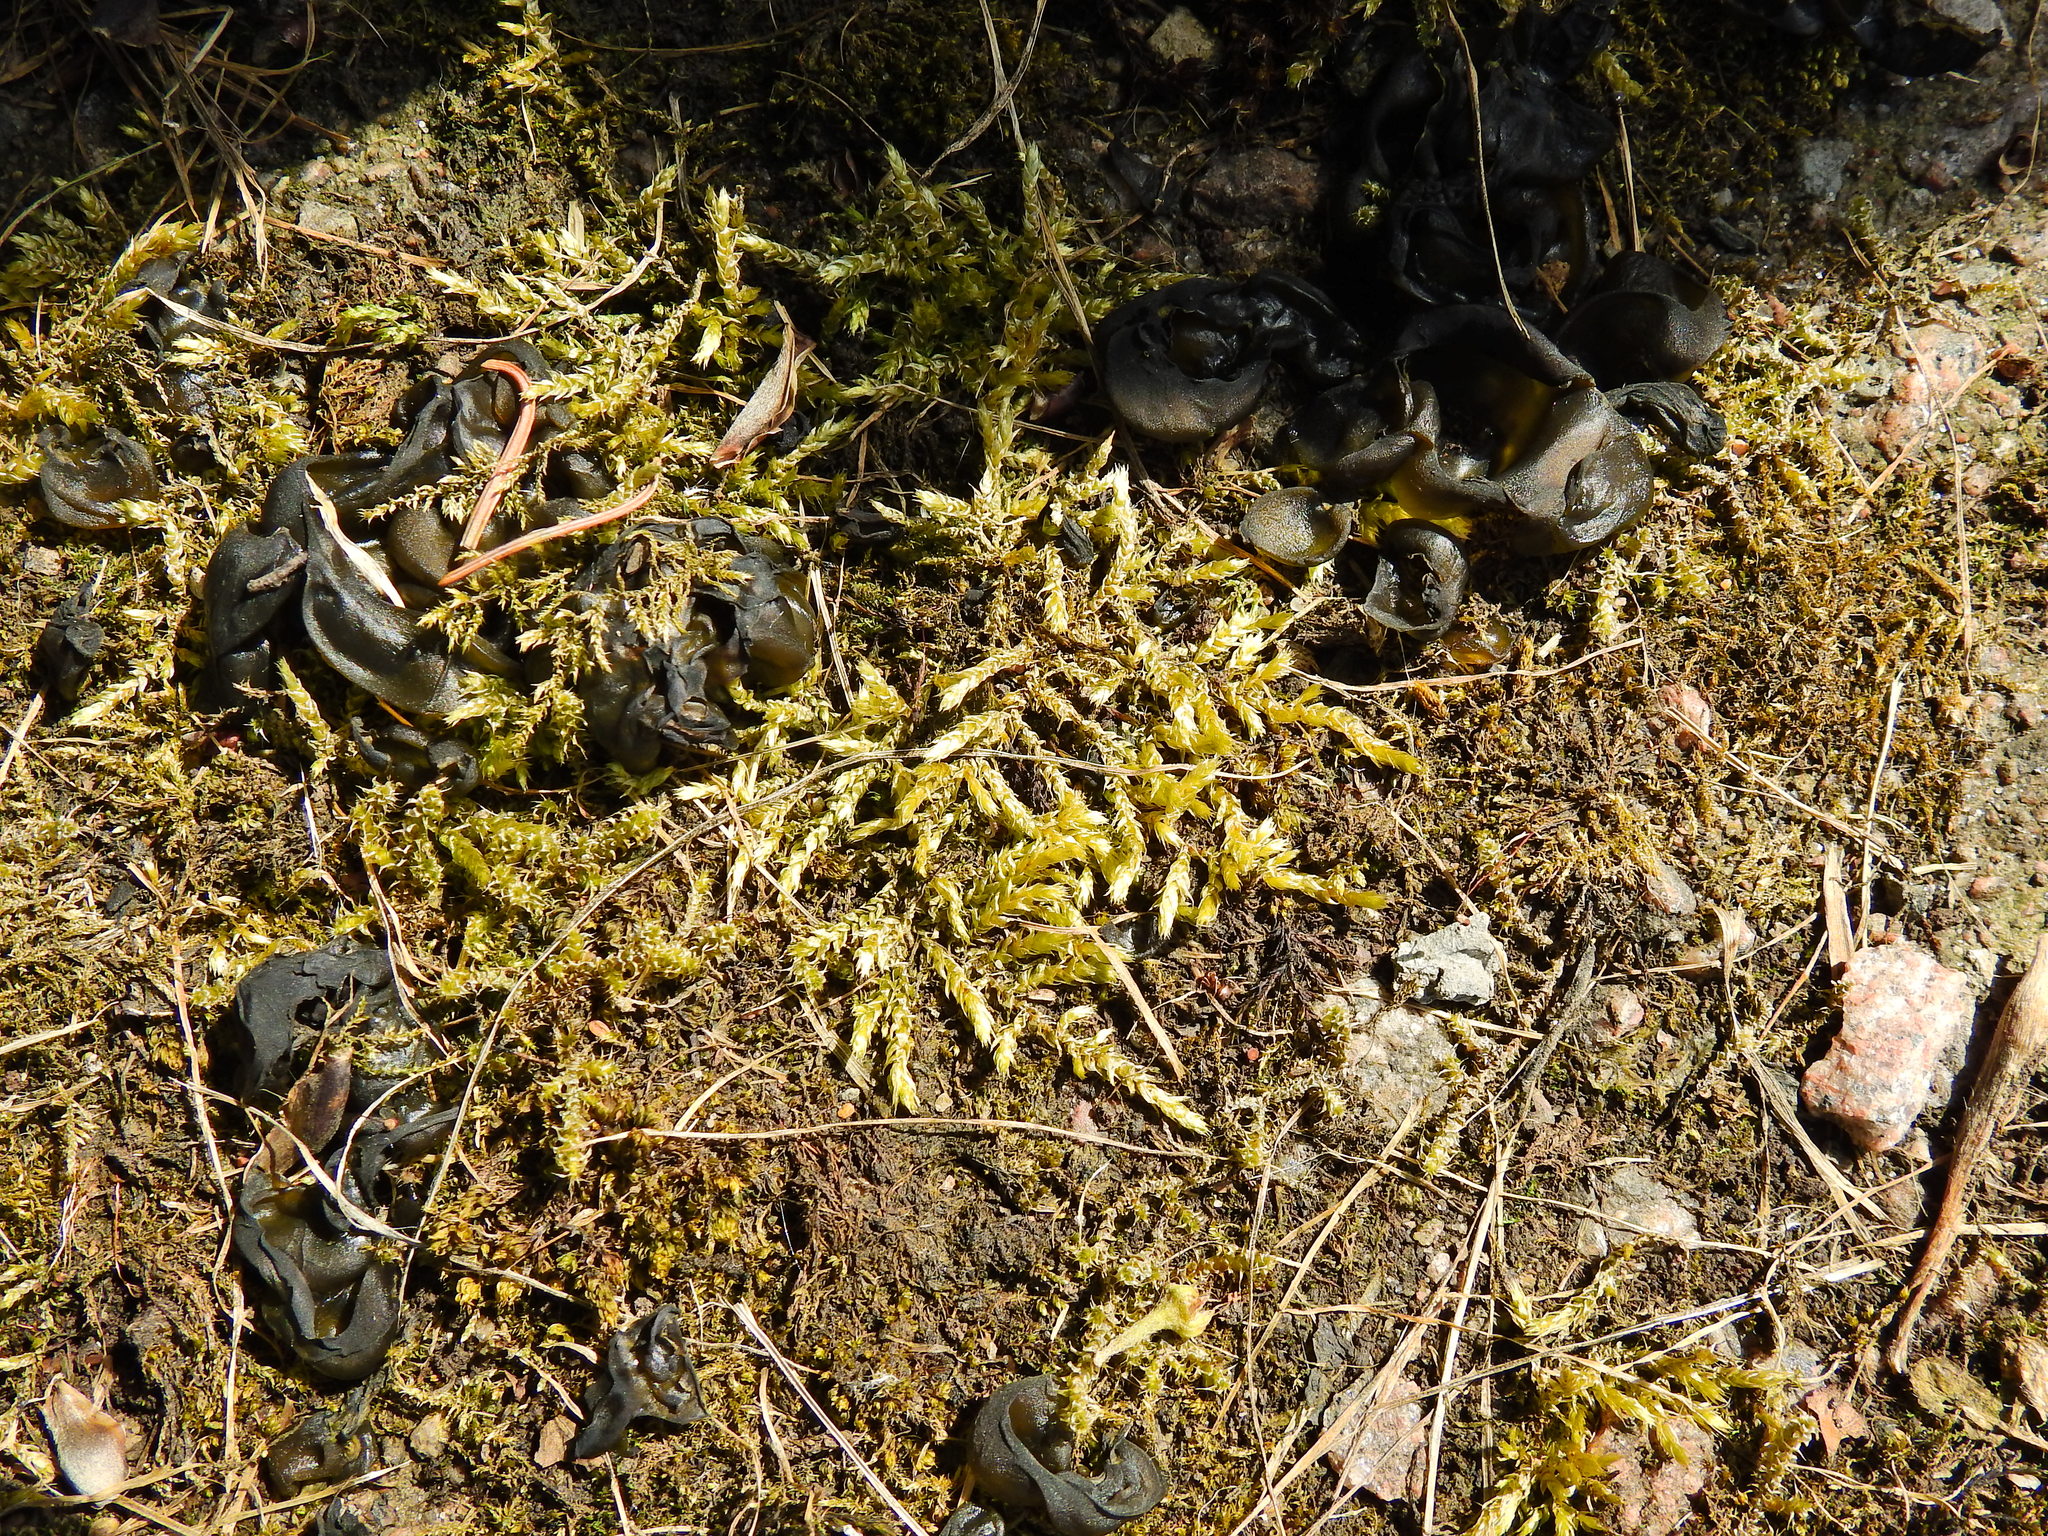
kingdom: Plantae
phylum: Bryophyta
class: Bryopsida
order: Hypnales
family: Brachytheciaceae
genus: Brachythecium
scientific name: Brachythecium rutabulum
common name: Rough-stalked feather-moss
